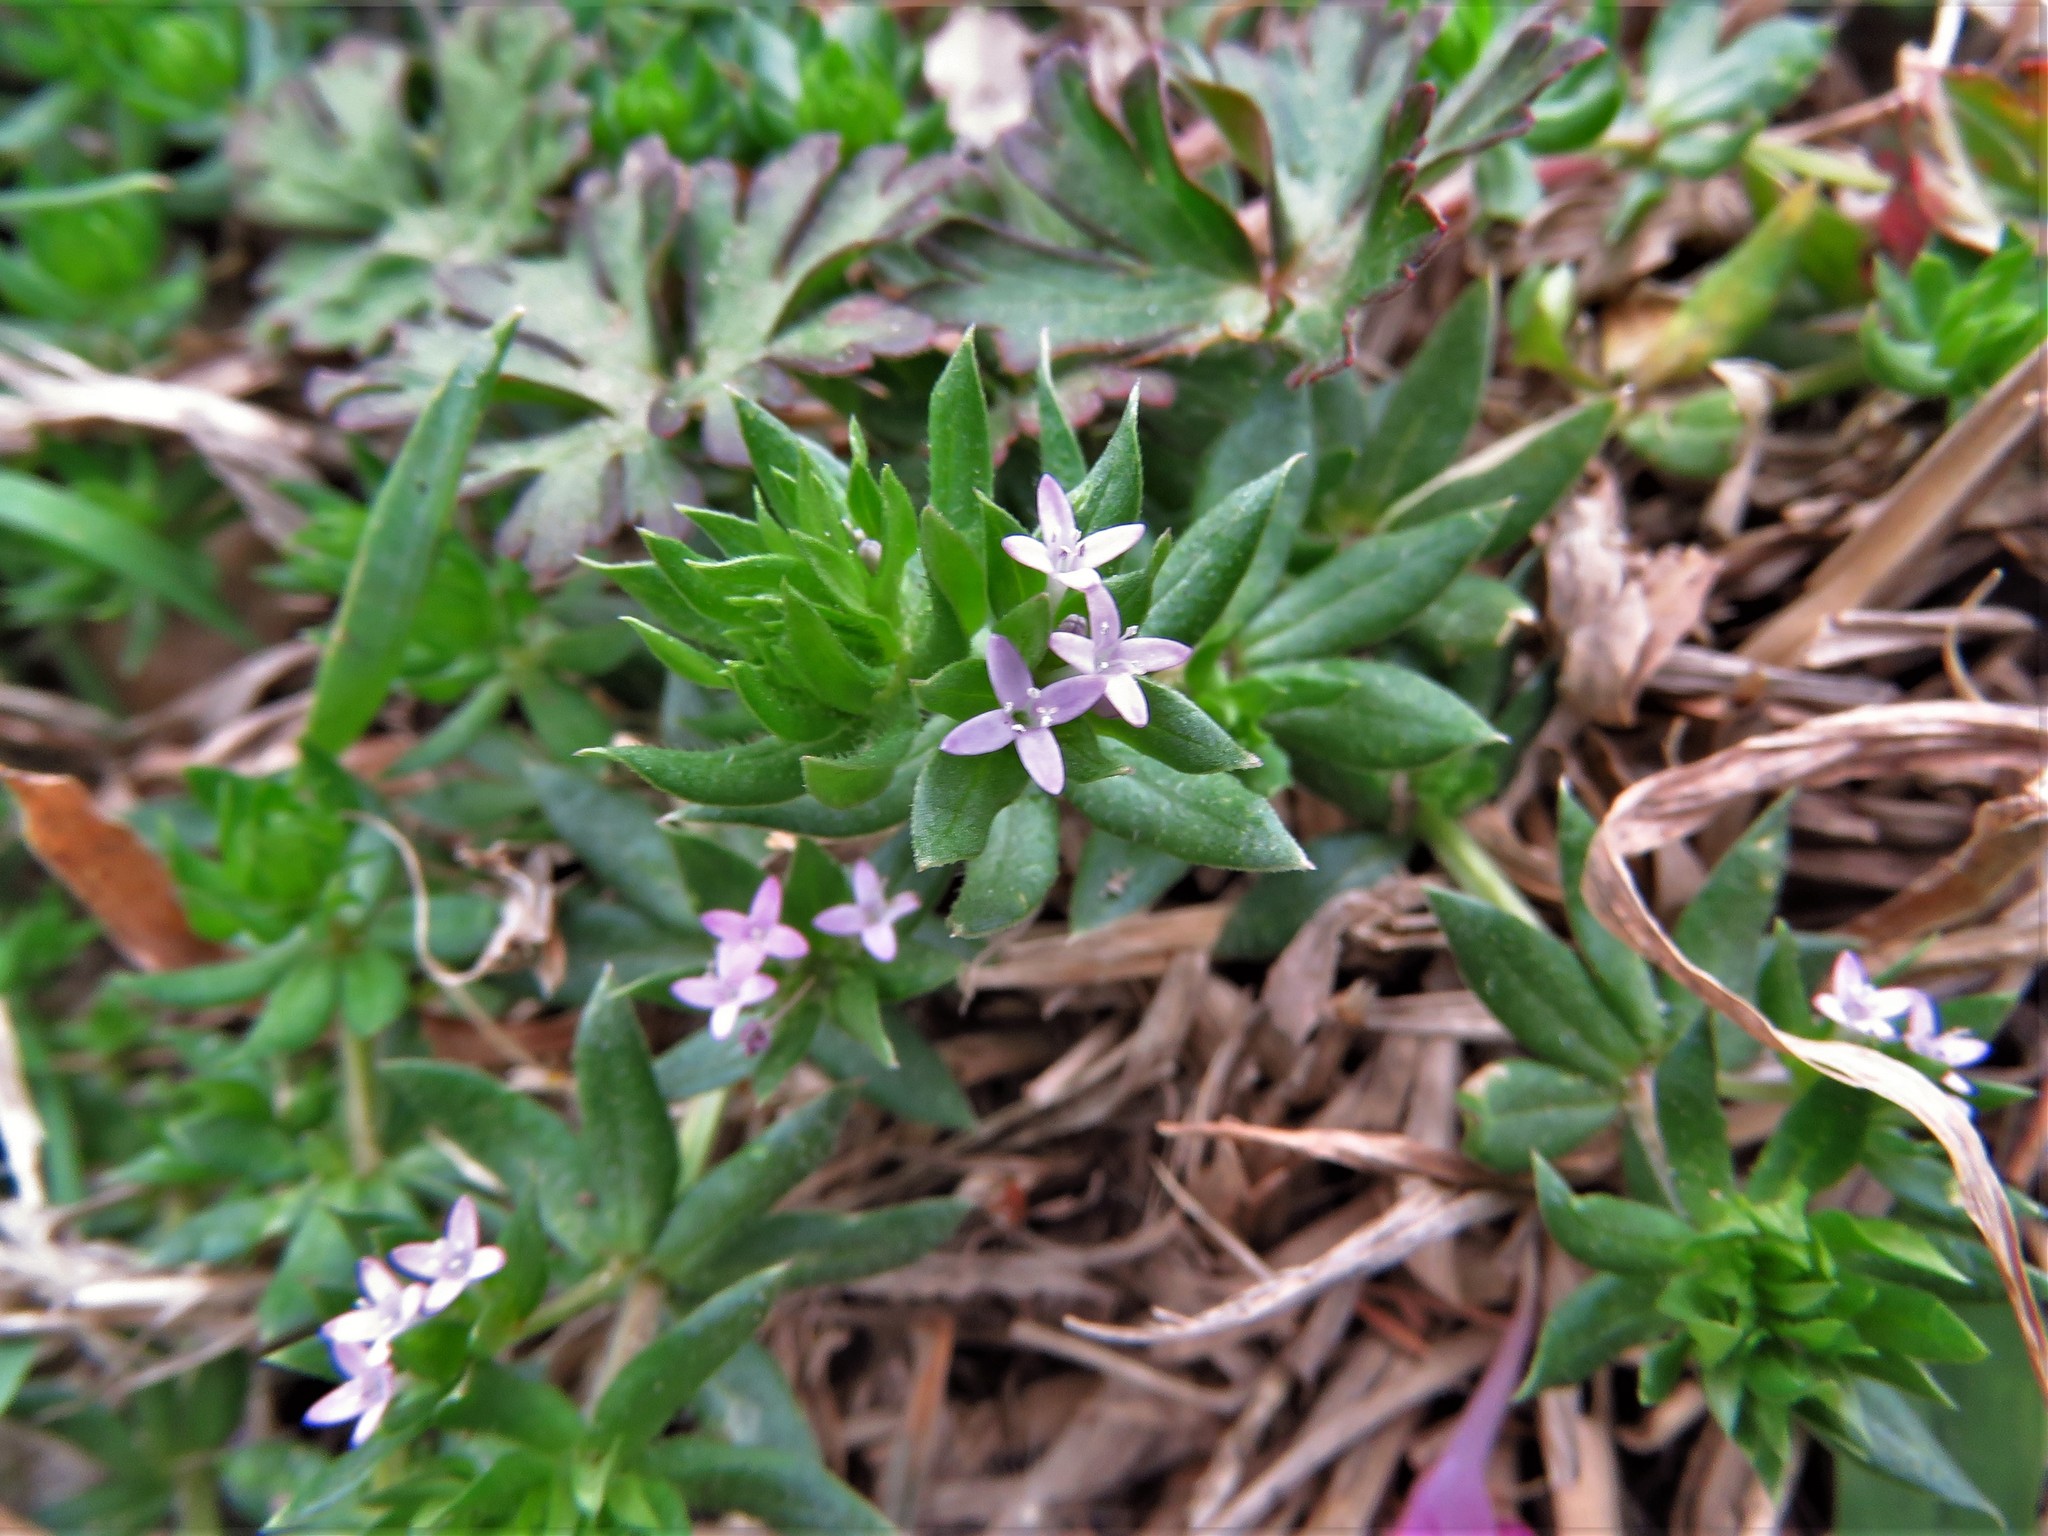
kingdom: Plantae
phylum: Tracheophyta
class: Magnoliopsida
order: Gentianales
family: Rubiaceae
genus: Sherardia
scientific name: Sherardia arvensis
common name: Field madder
